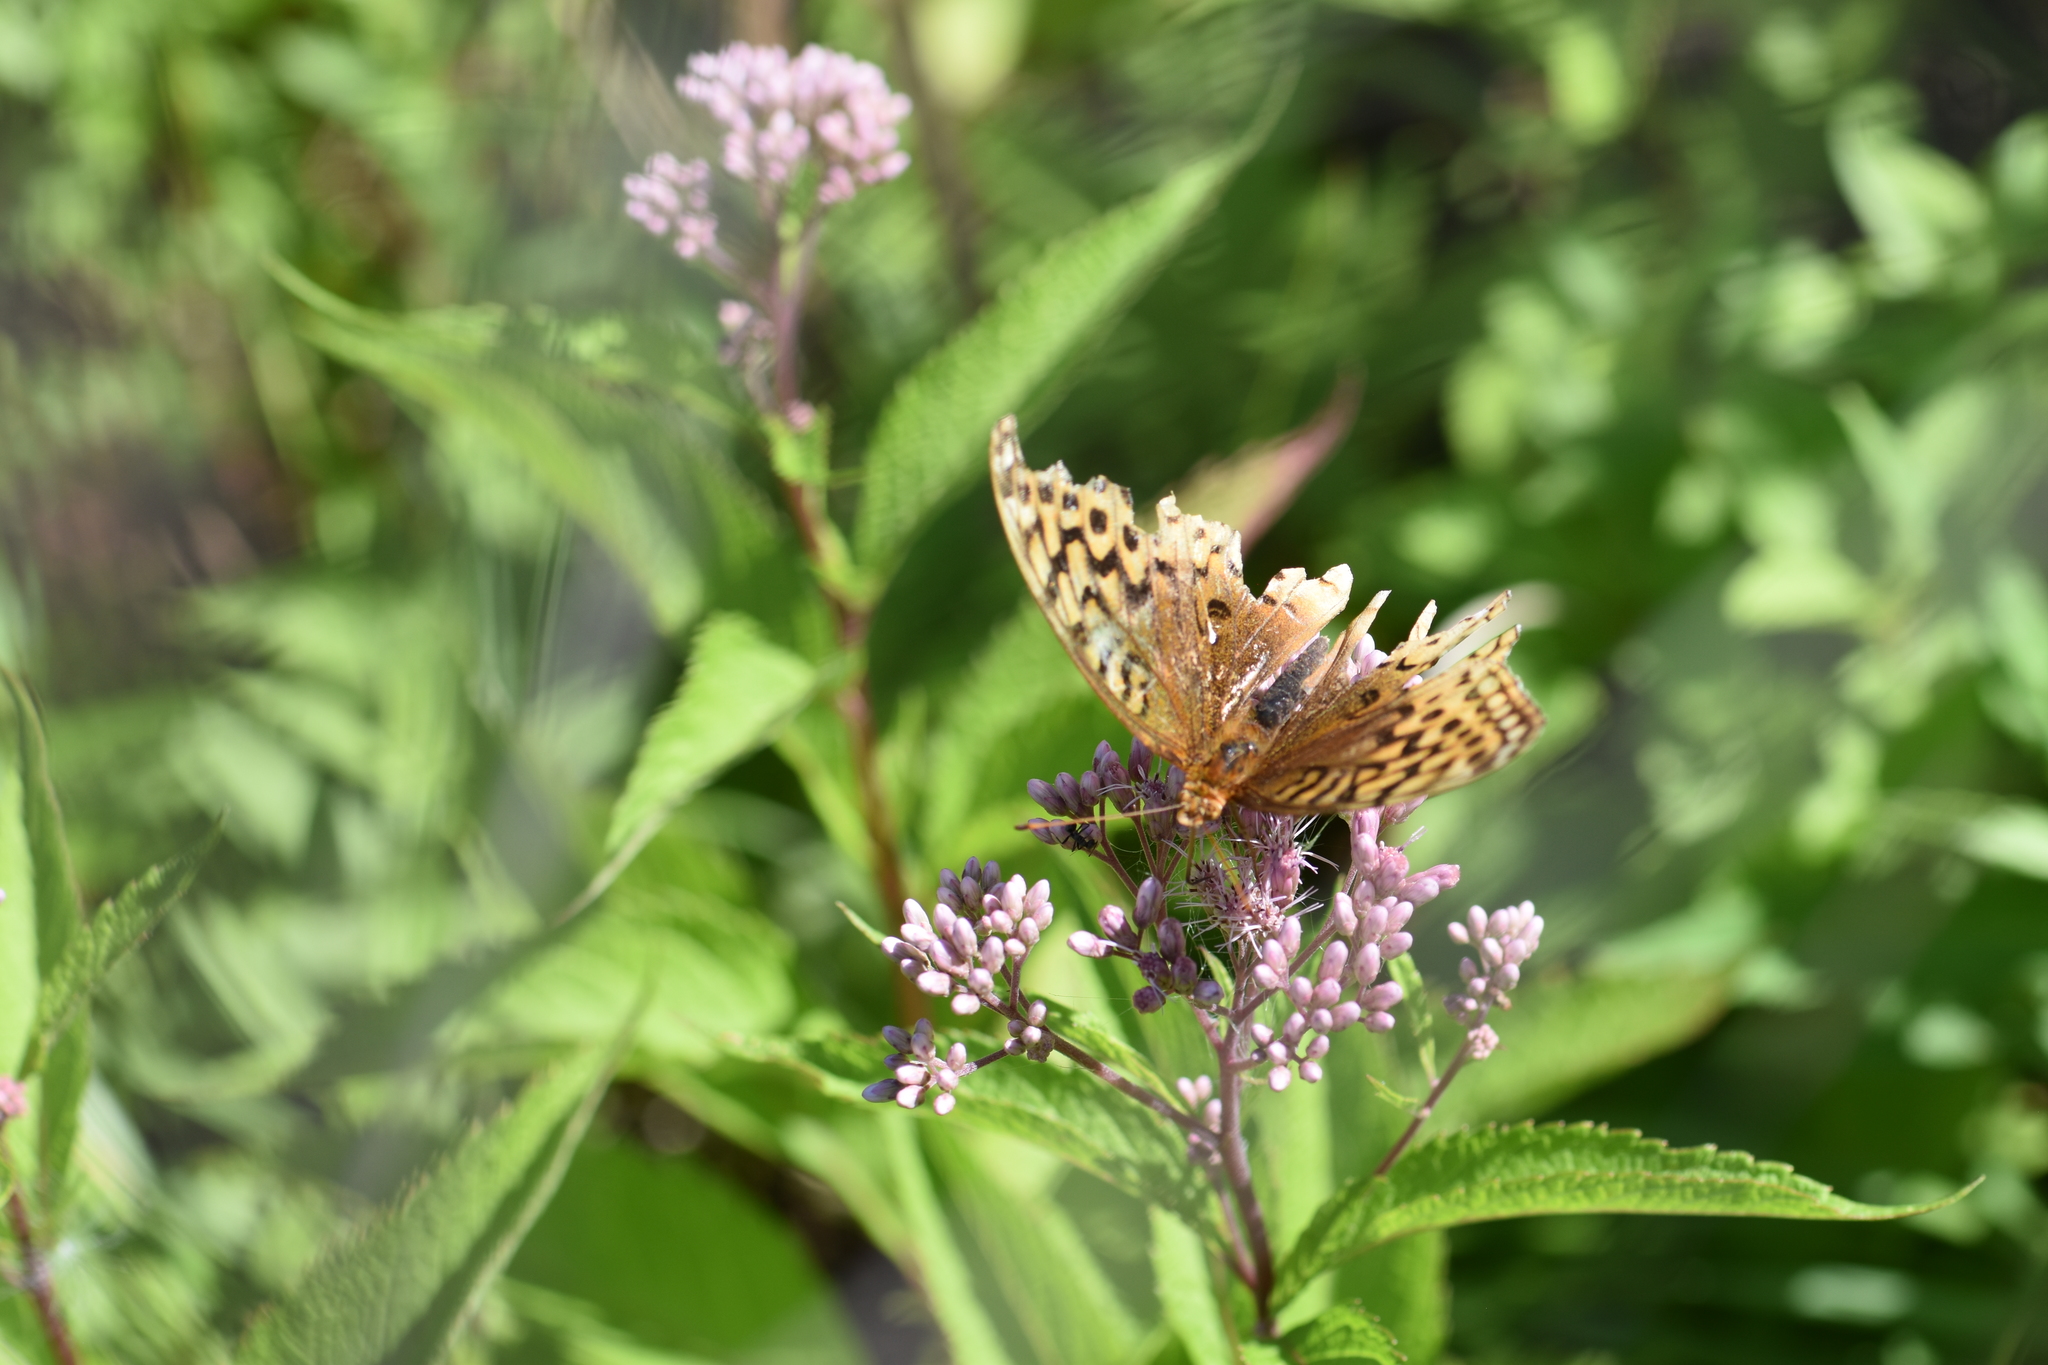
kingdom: Animalia
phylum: Arthropoda
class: Insecta
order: Lepidoptera
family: Nymphalidae
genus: Speyeria
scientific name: Speyeria cybele
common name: Great spangled fritillary
